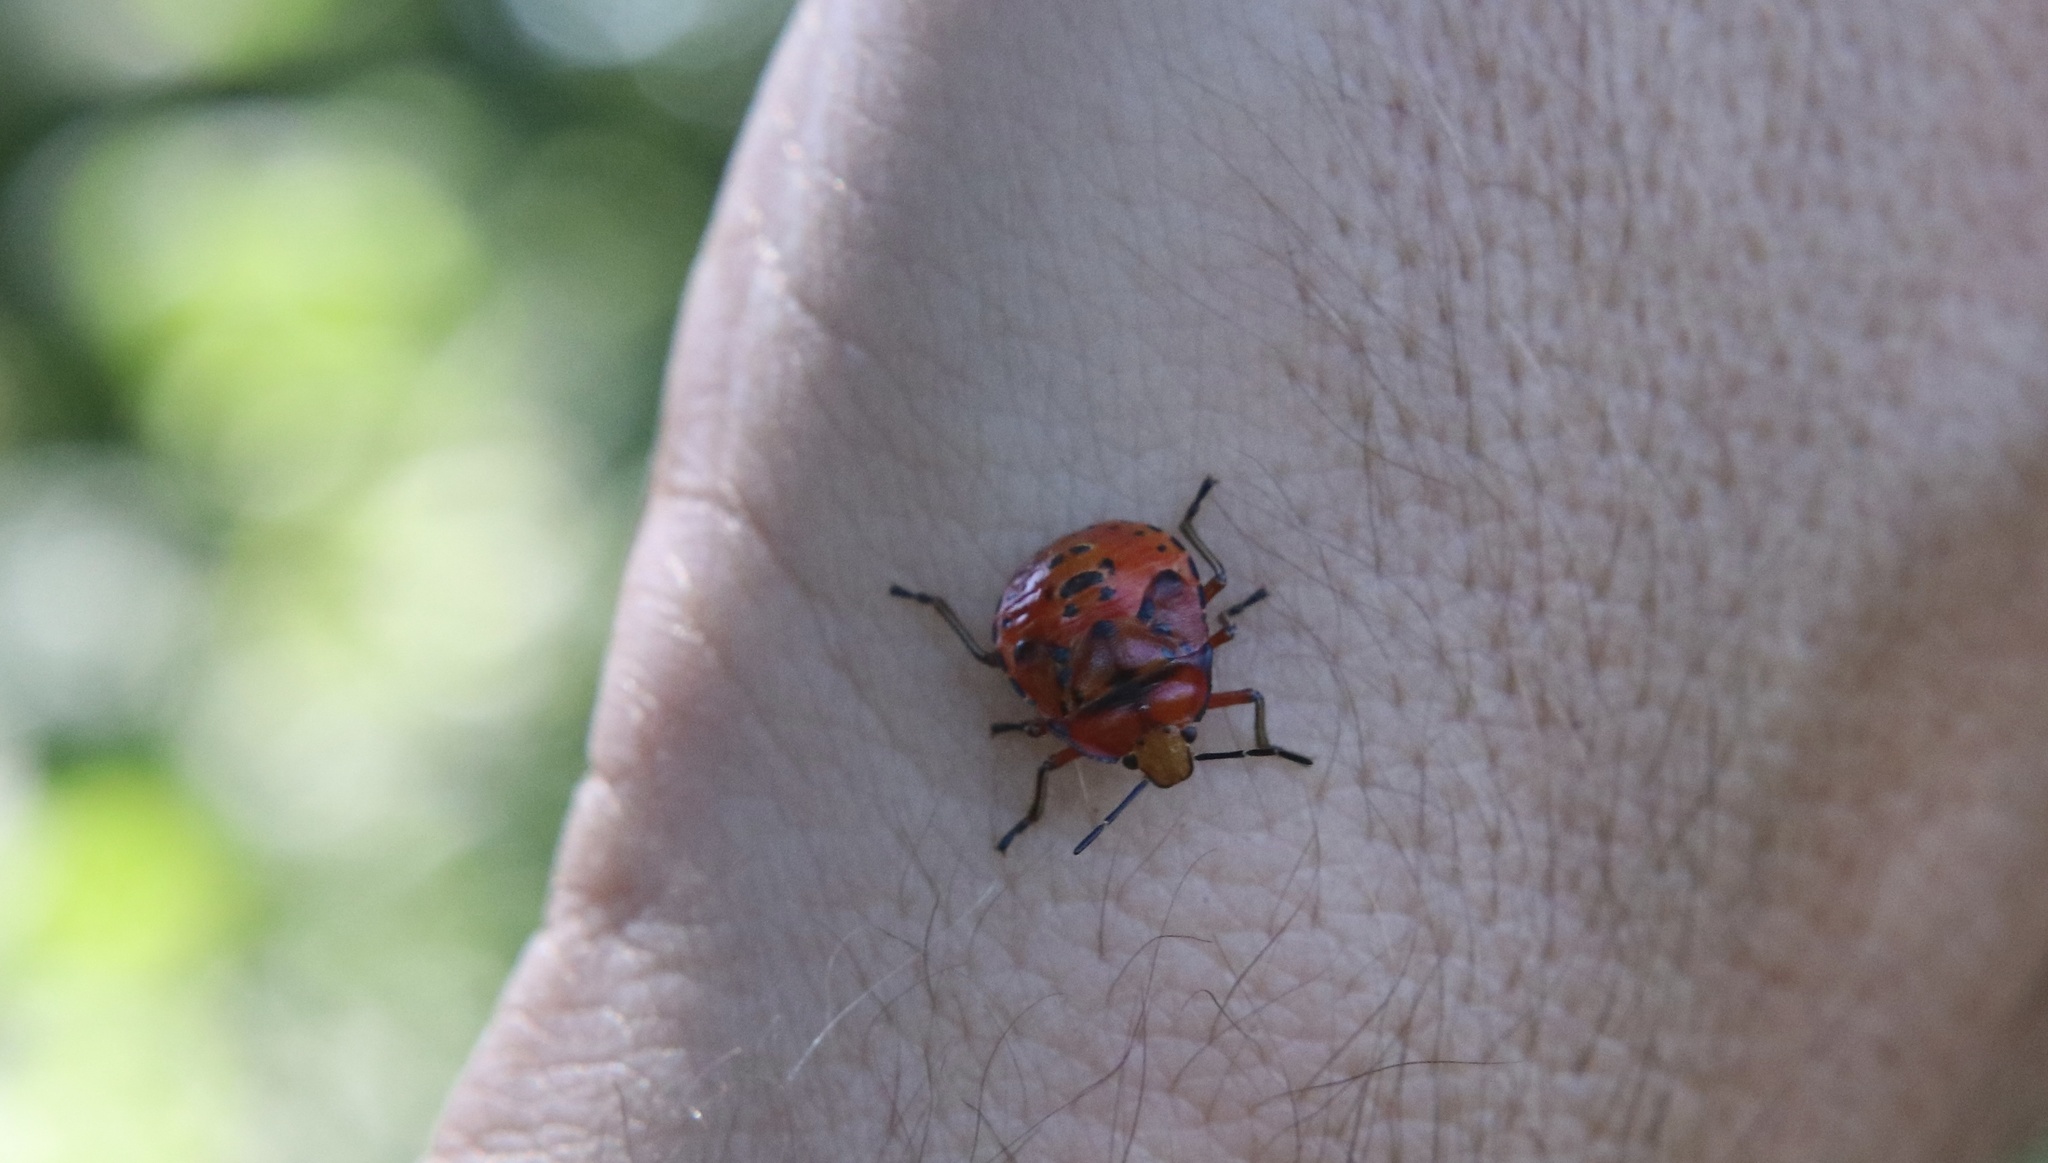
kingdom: Animalia
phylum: Arthropoda
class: Insecta
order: Hemiptera
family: Pentatomidae
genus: Brontocoris
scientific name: Brontocoris
